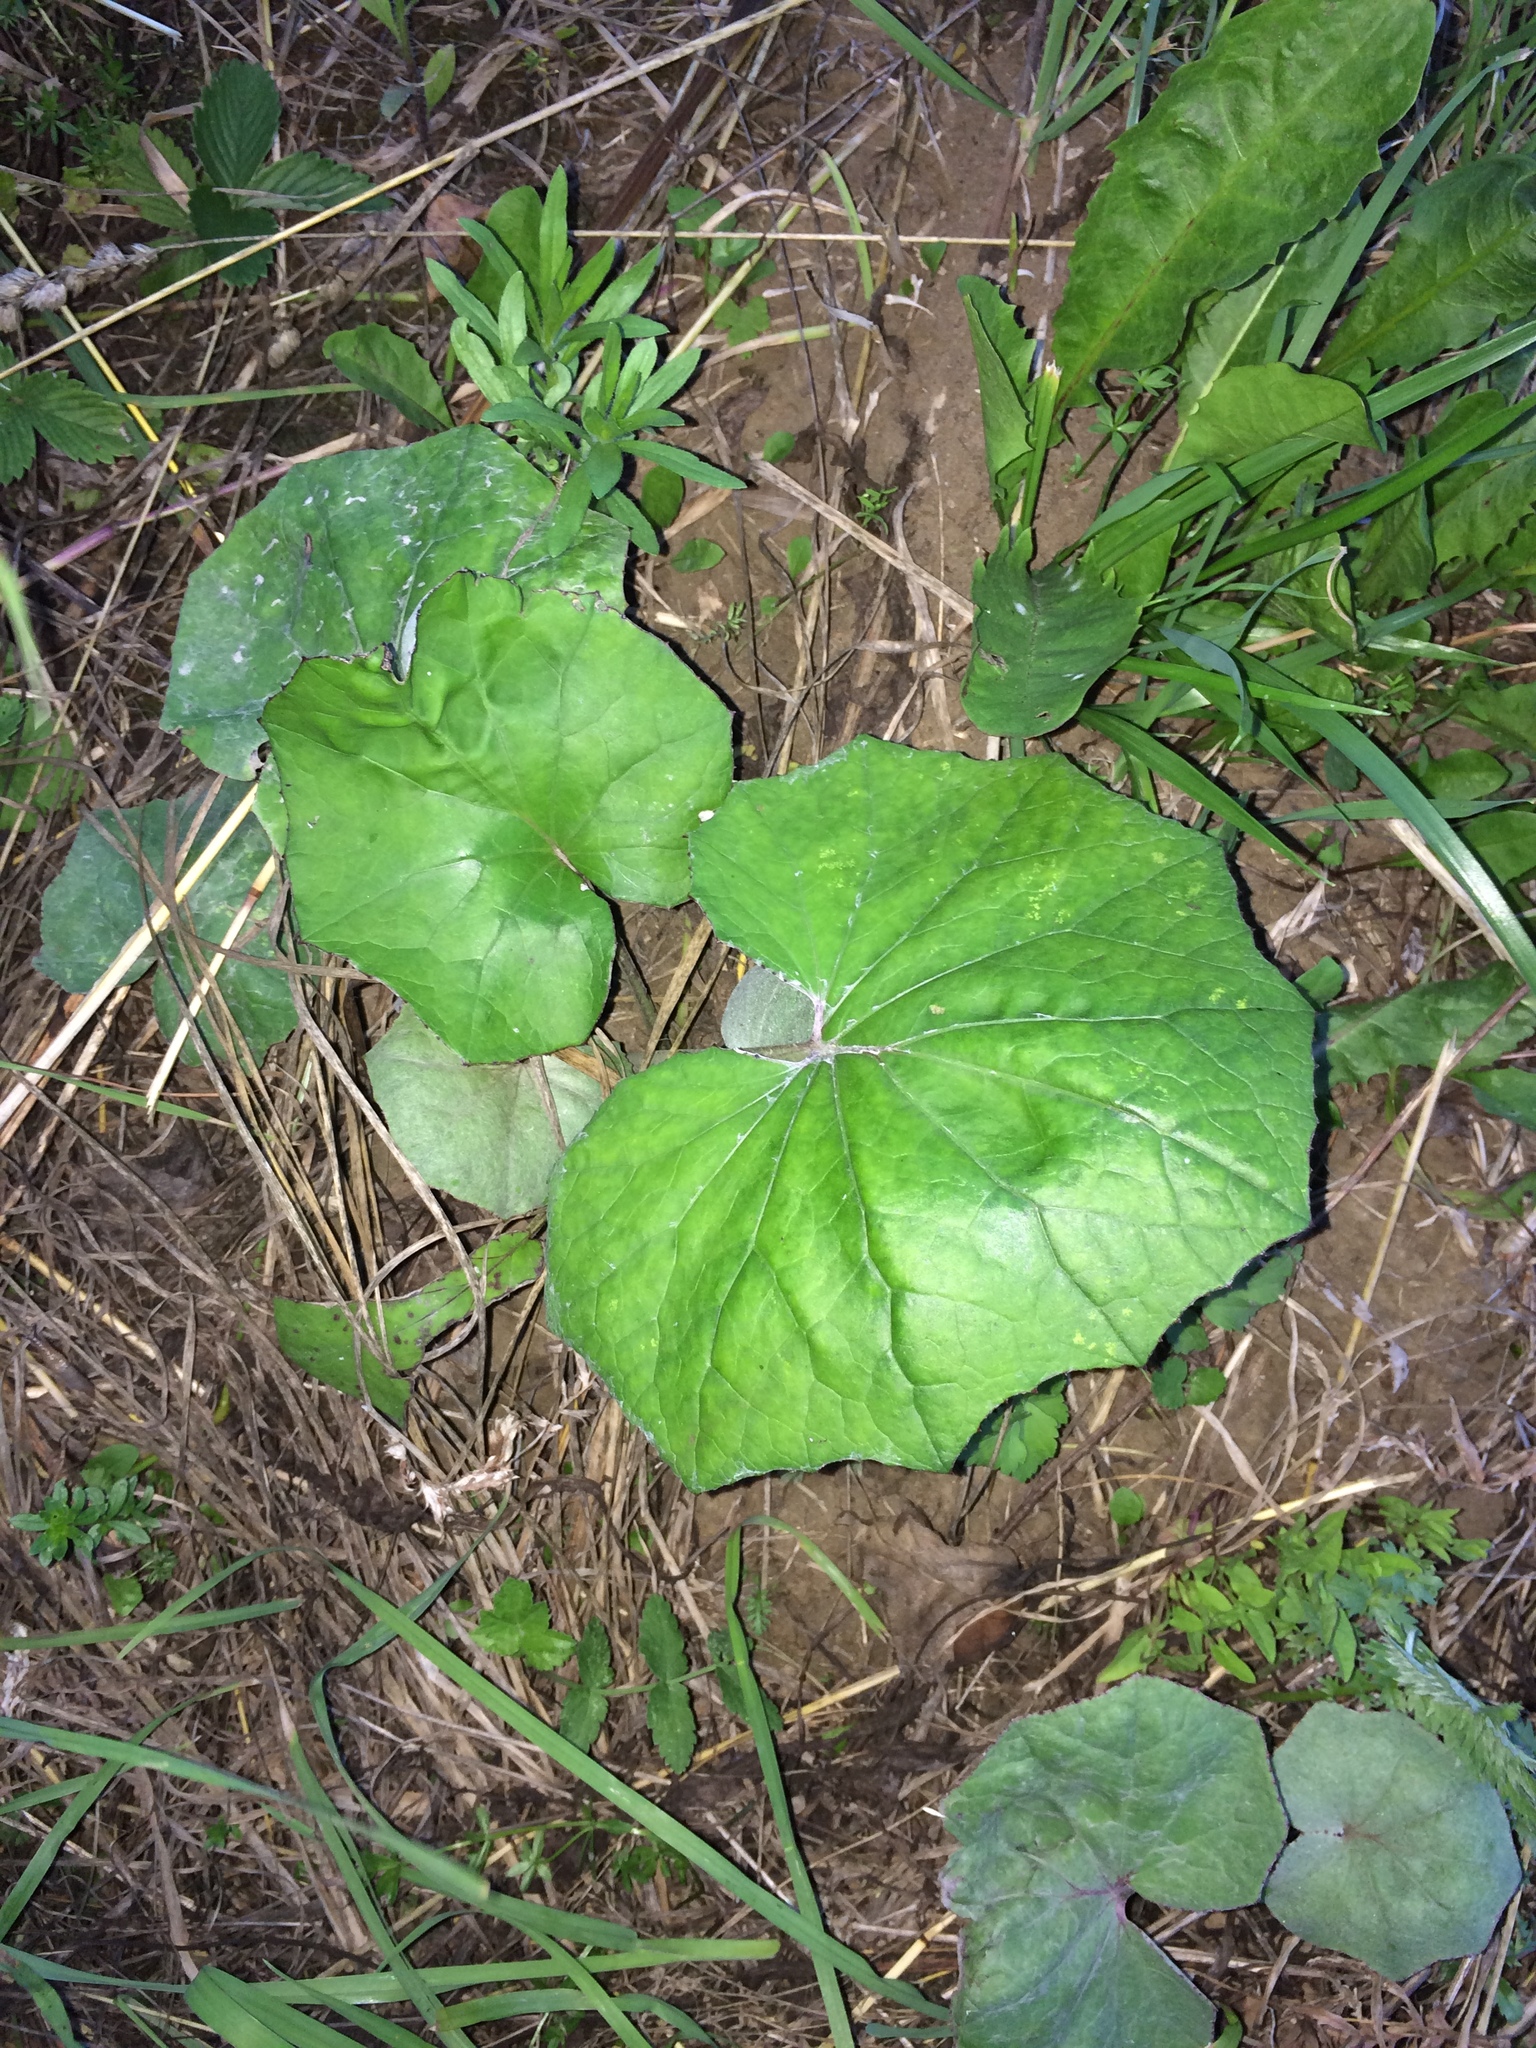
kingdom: Plantae
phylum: Tracheophyta
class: Magnoliopsida
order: Asterales
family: Asteraceae
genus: Tussilago
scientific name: Tussilago farfara
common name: Coltsfoot
